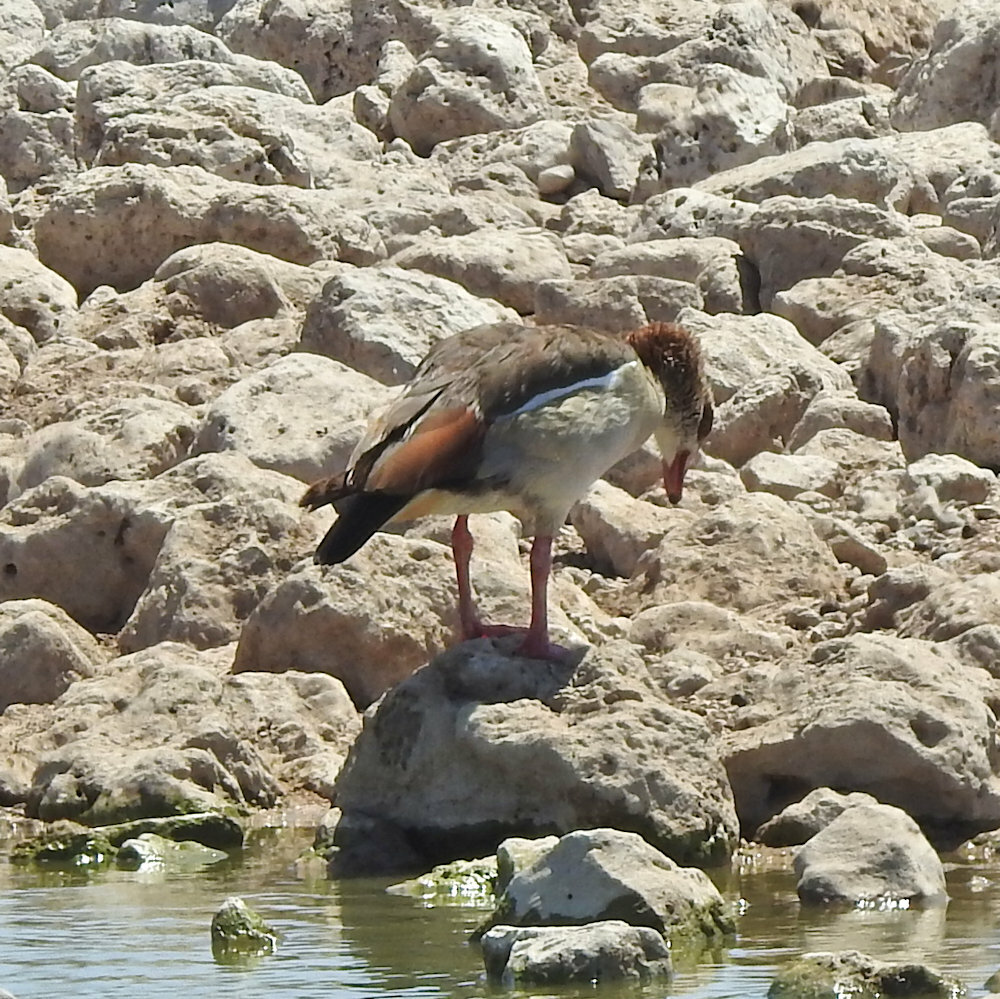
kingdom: Animalia
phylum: Chordata
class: Aves
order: Anseriformes
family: Anatidae
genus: Alopochen
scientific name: Alopochen aegyptiaca
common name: Egyptian goose
